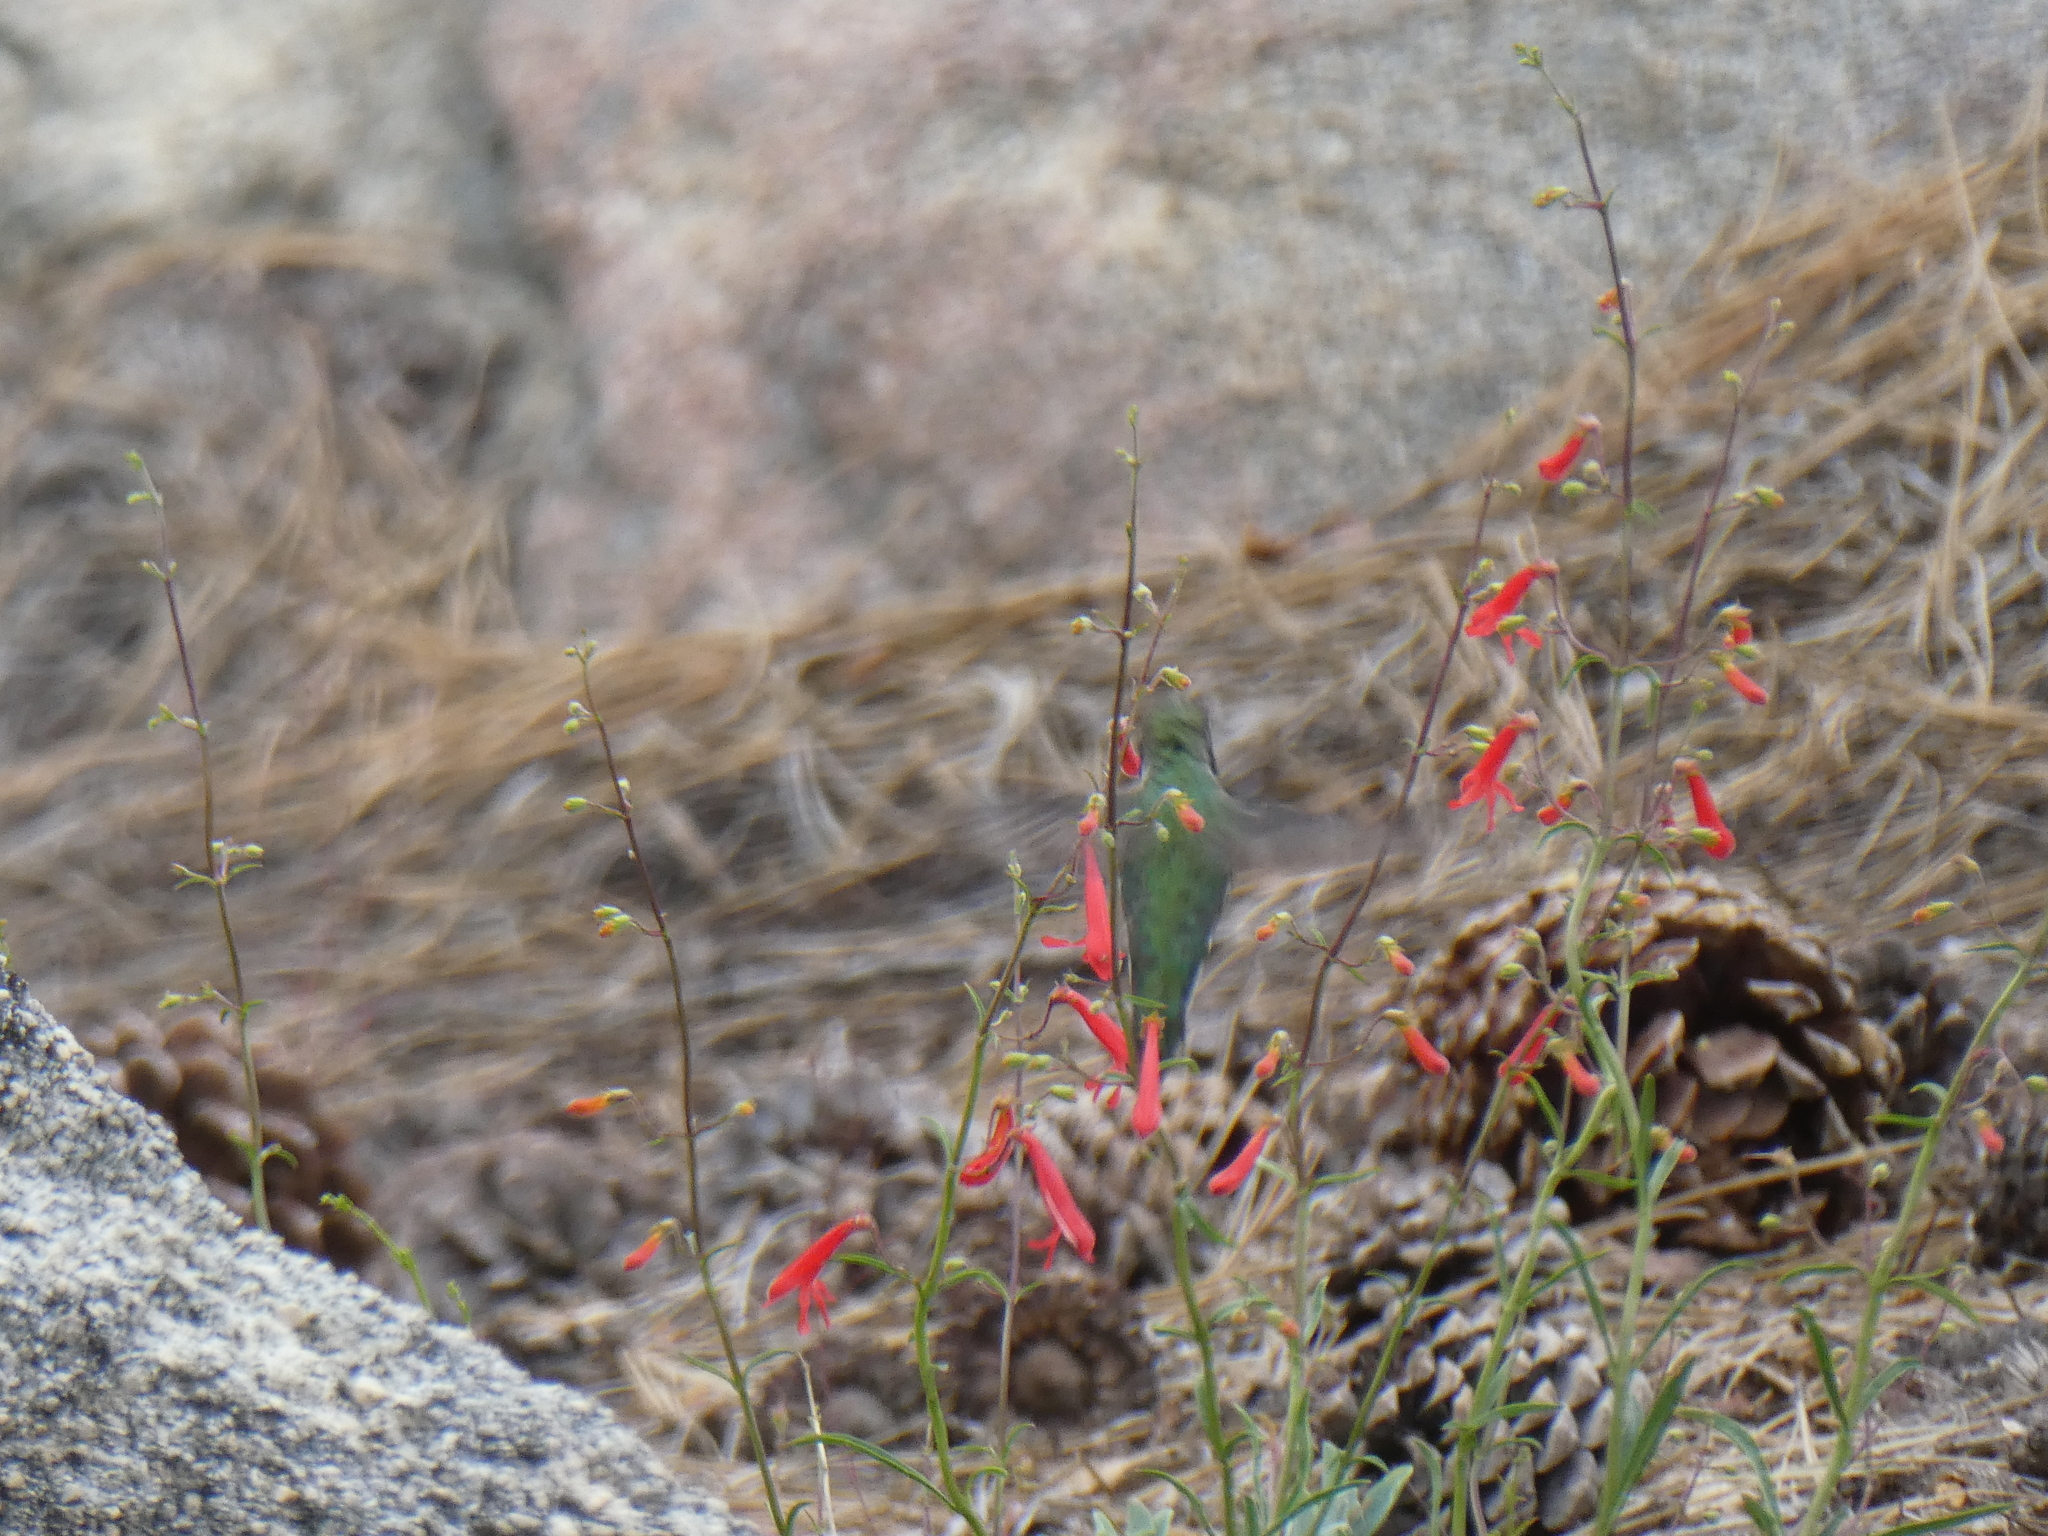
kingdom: Animalia
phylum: Chordata
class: Aves
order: Apodiformes
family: Trochilidae
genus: Calypte
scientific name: Calypte anna
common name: Anna's hummingbird
